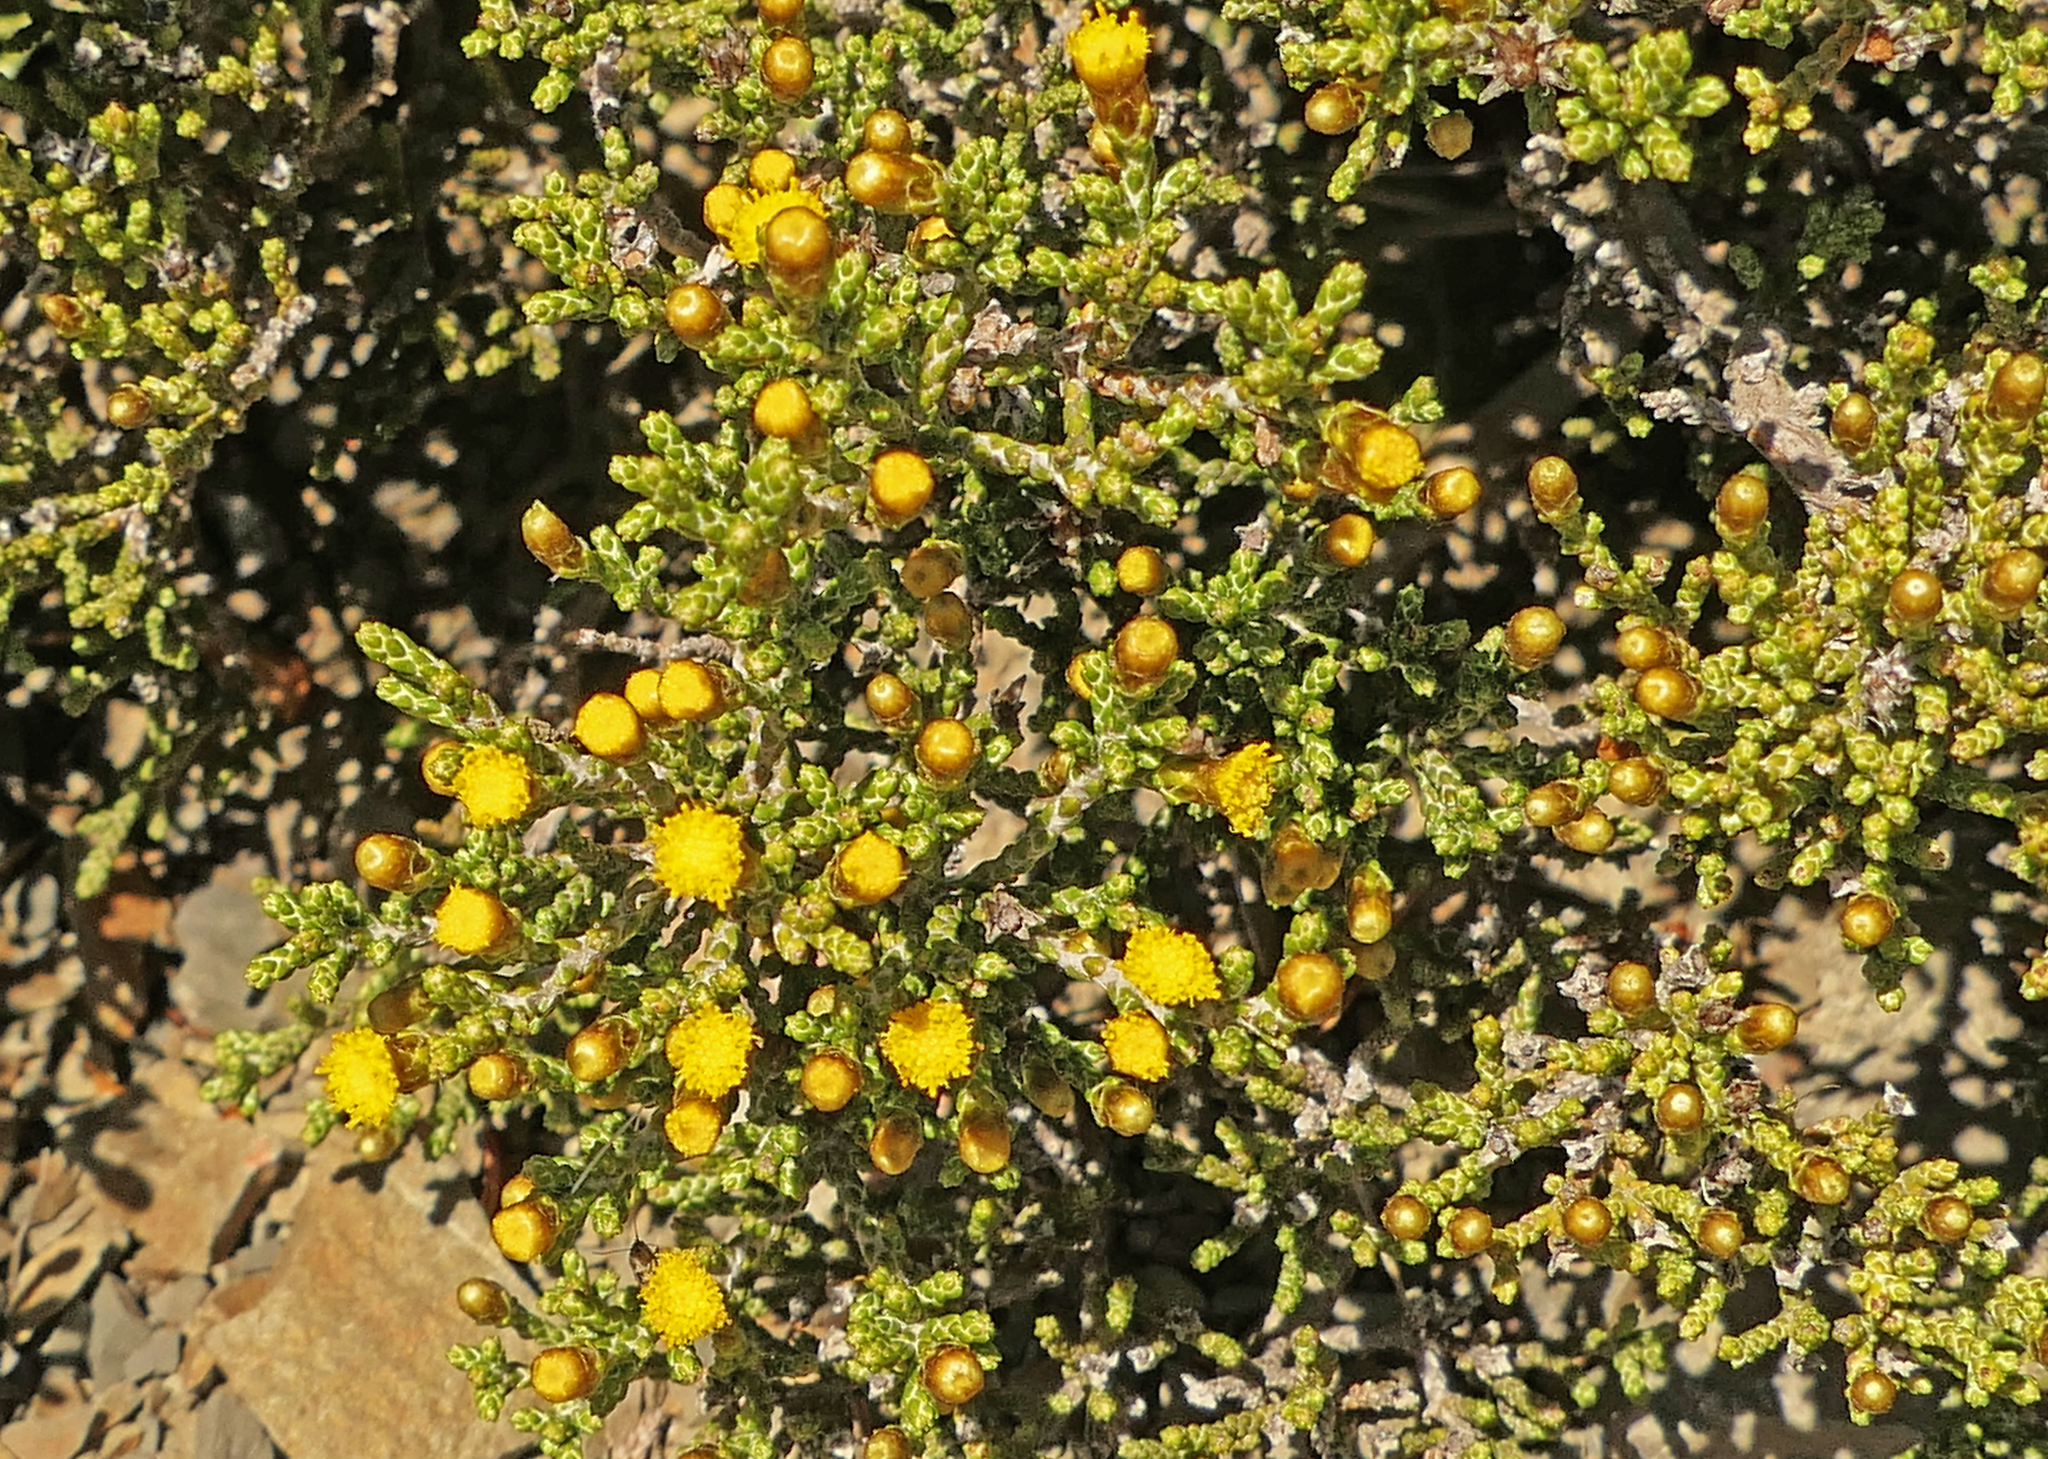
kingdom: Plantae
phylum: Tracheophyta
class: Magnoliopsida
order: Asterales
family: Asteraceae
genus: Ozothamnus
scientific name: Ozothamnus parvifolius
